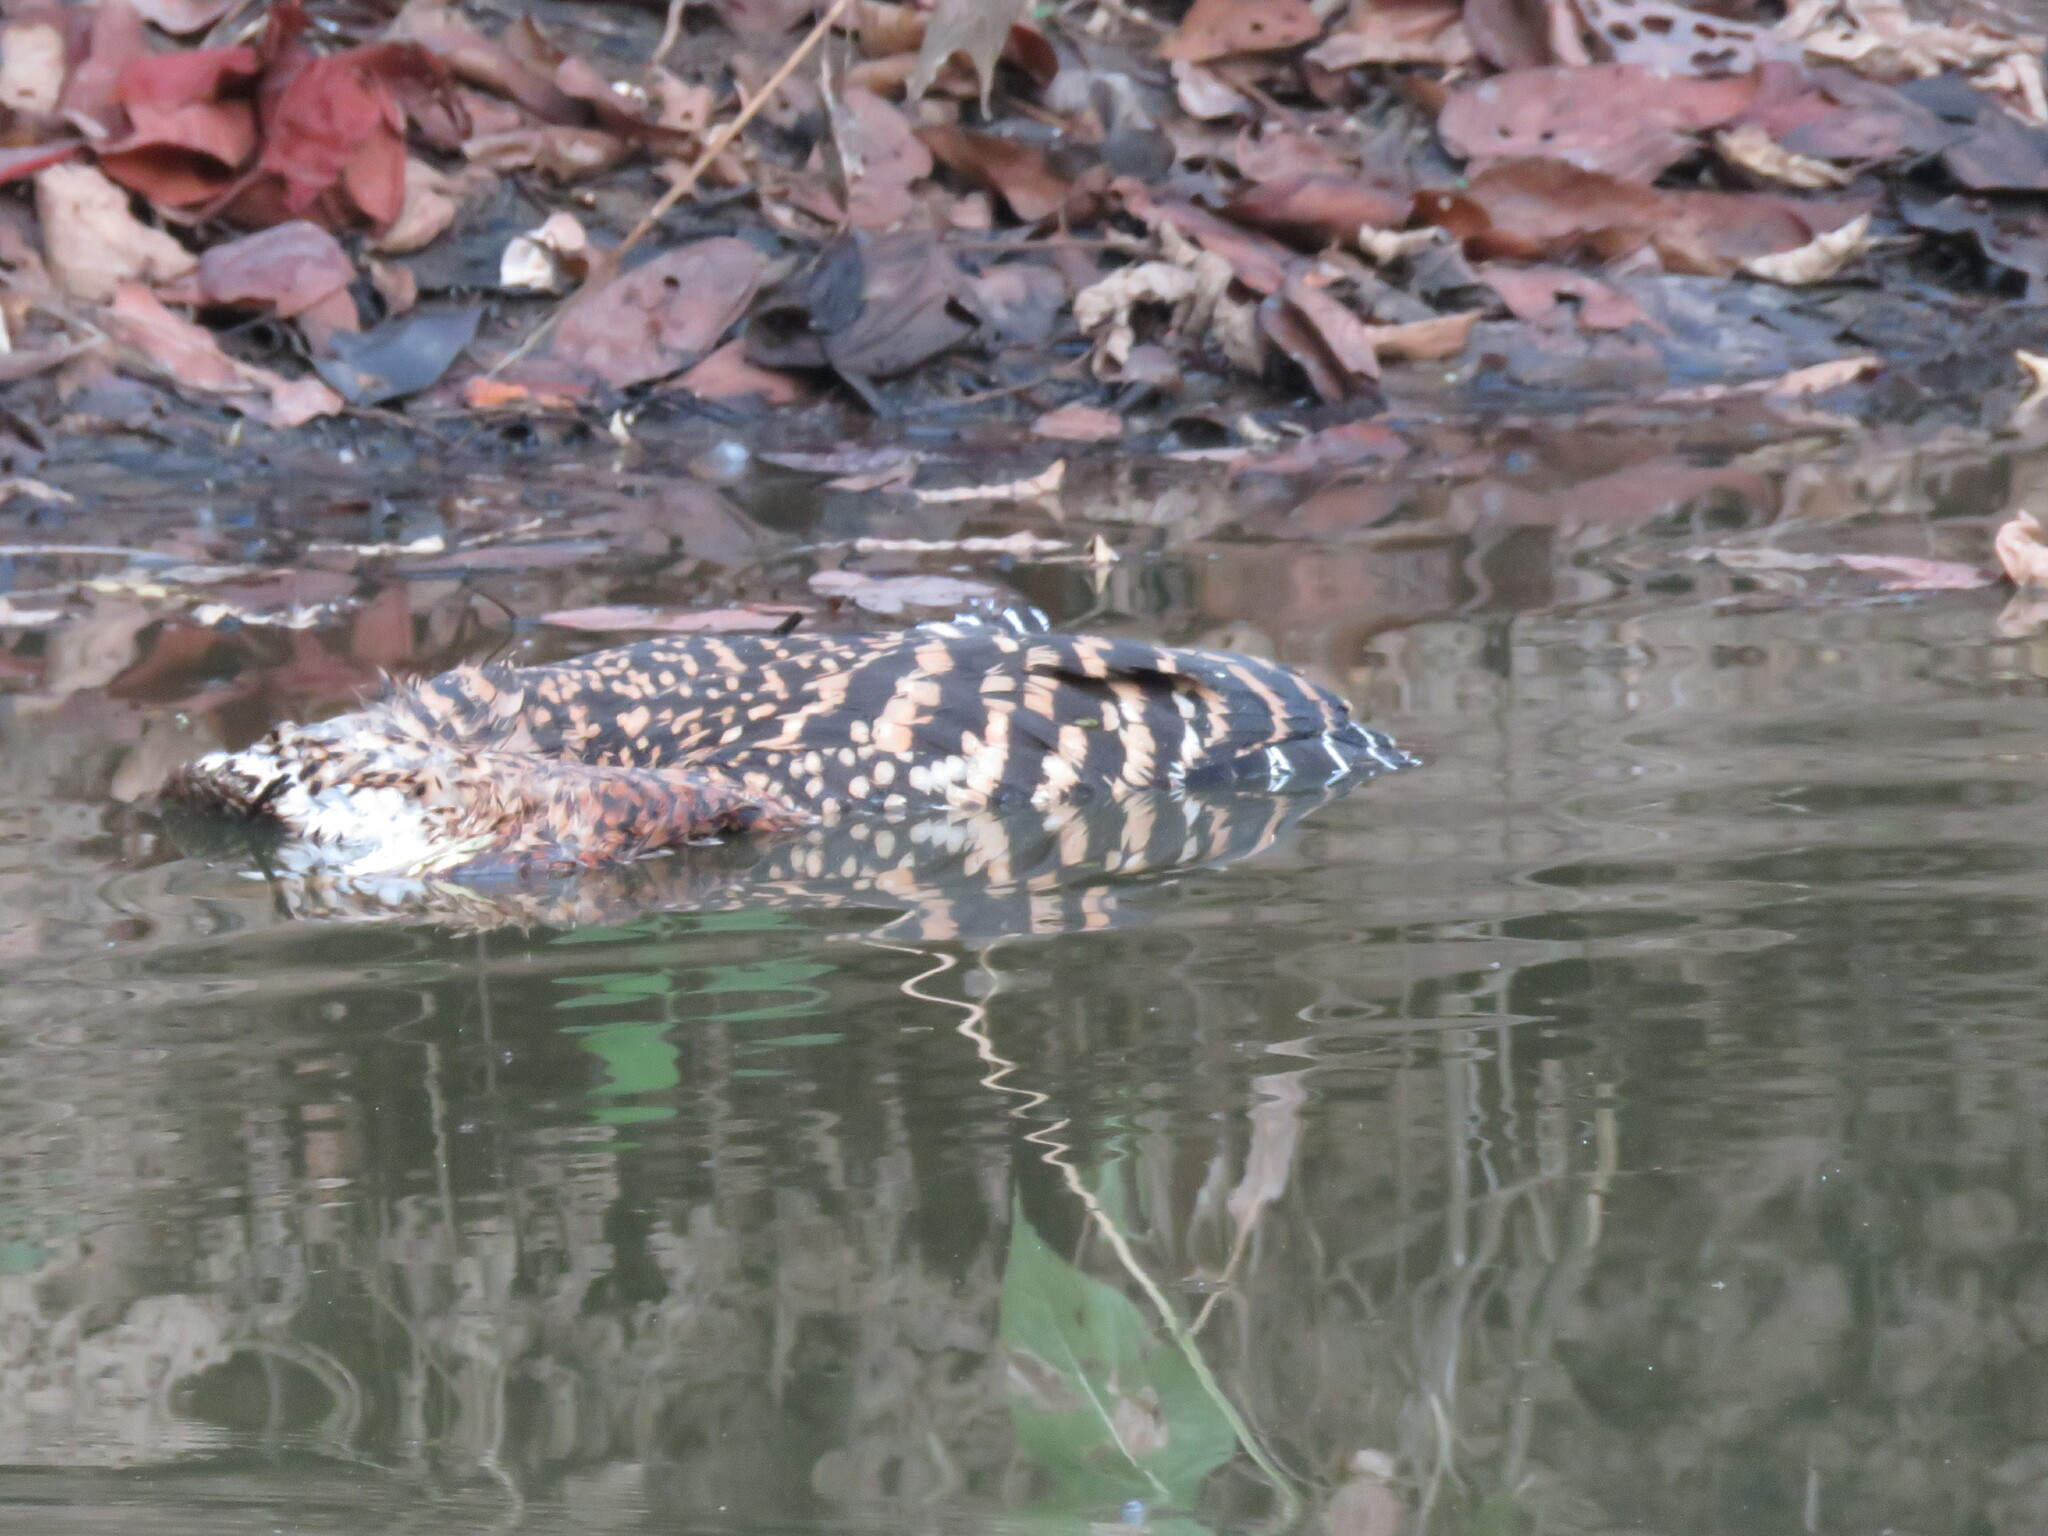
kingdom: Animalia
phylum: Chordata
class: Aves
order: Pelecaniformes
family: Ardeidae
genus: Tigrisoma
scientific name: Tigrisoma lineatum
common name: Rufescent tiger-heron
